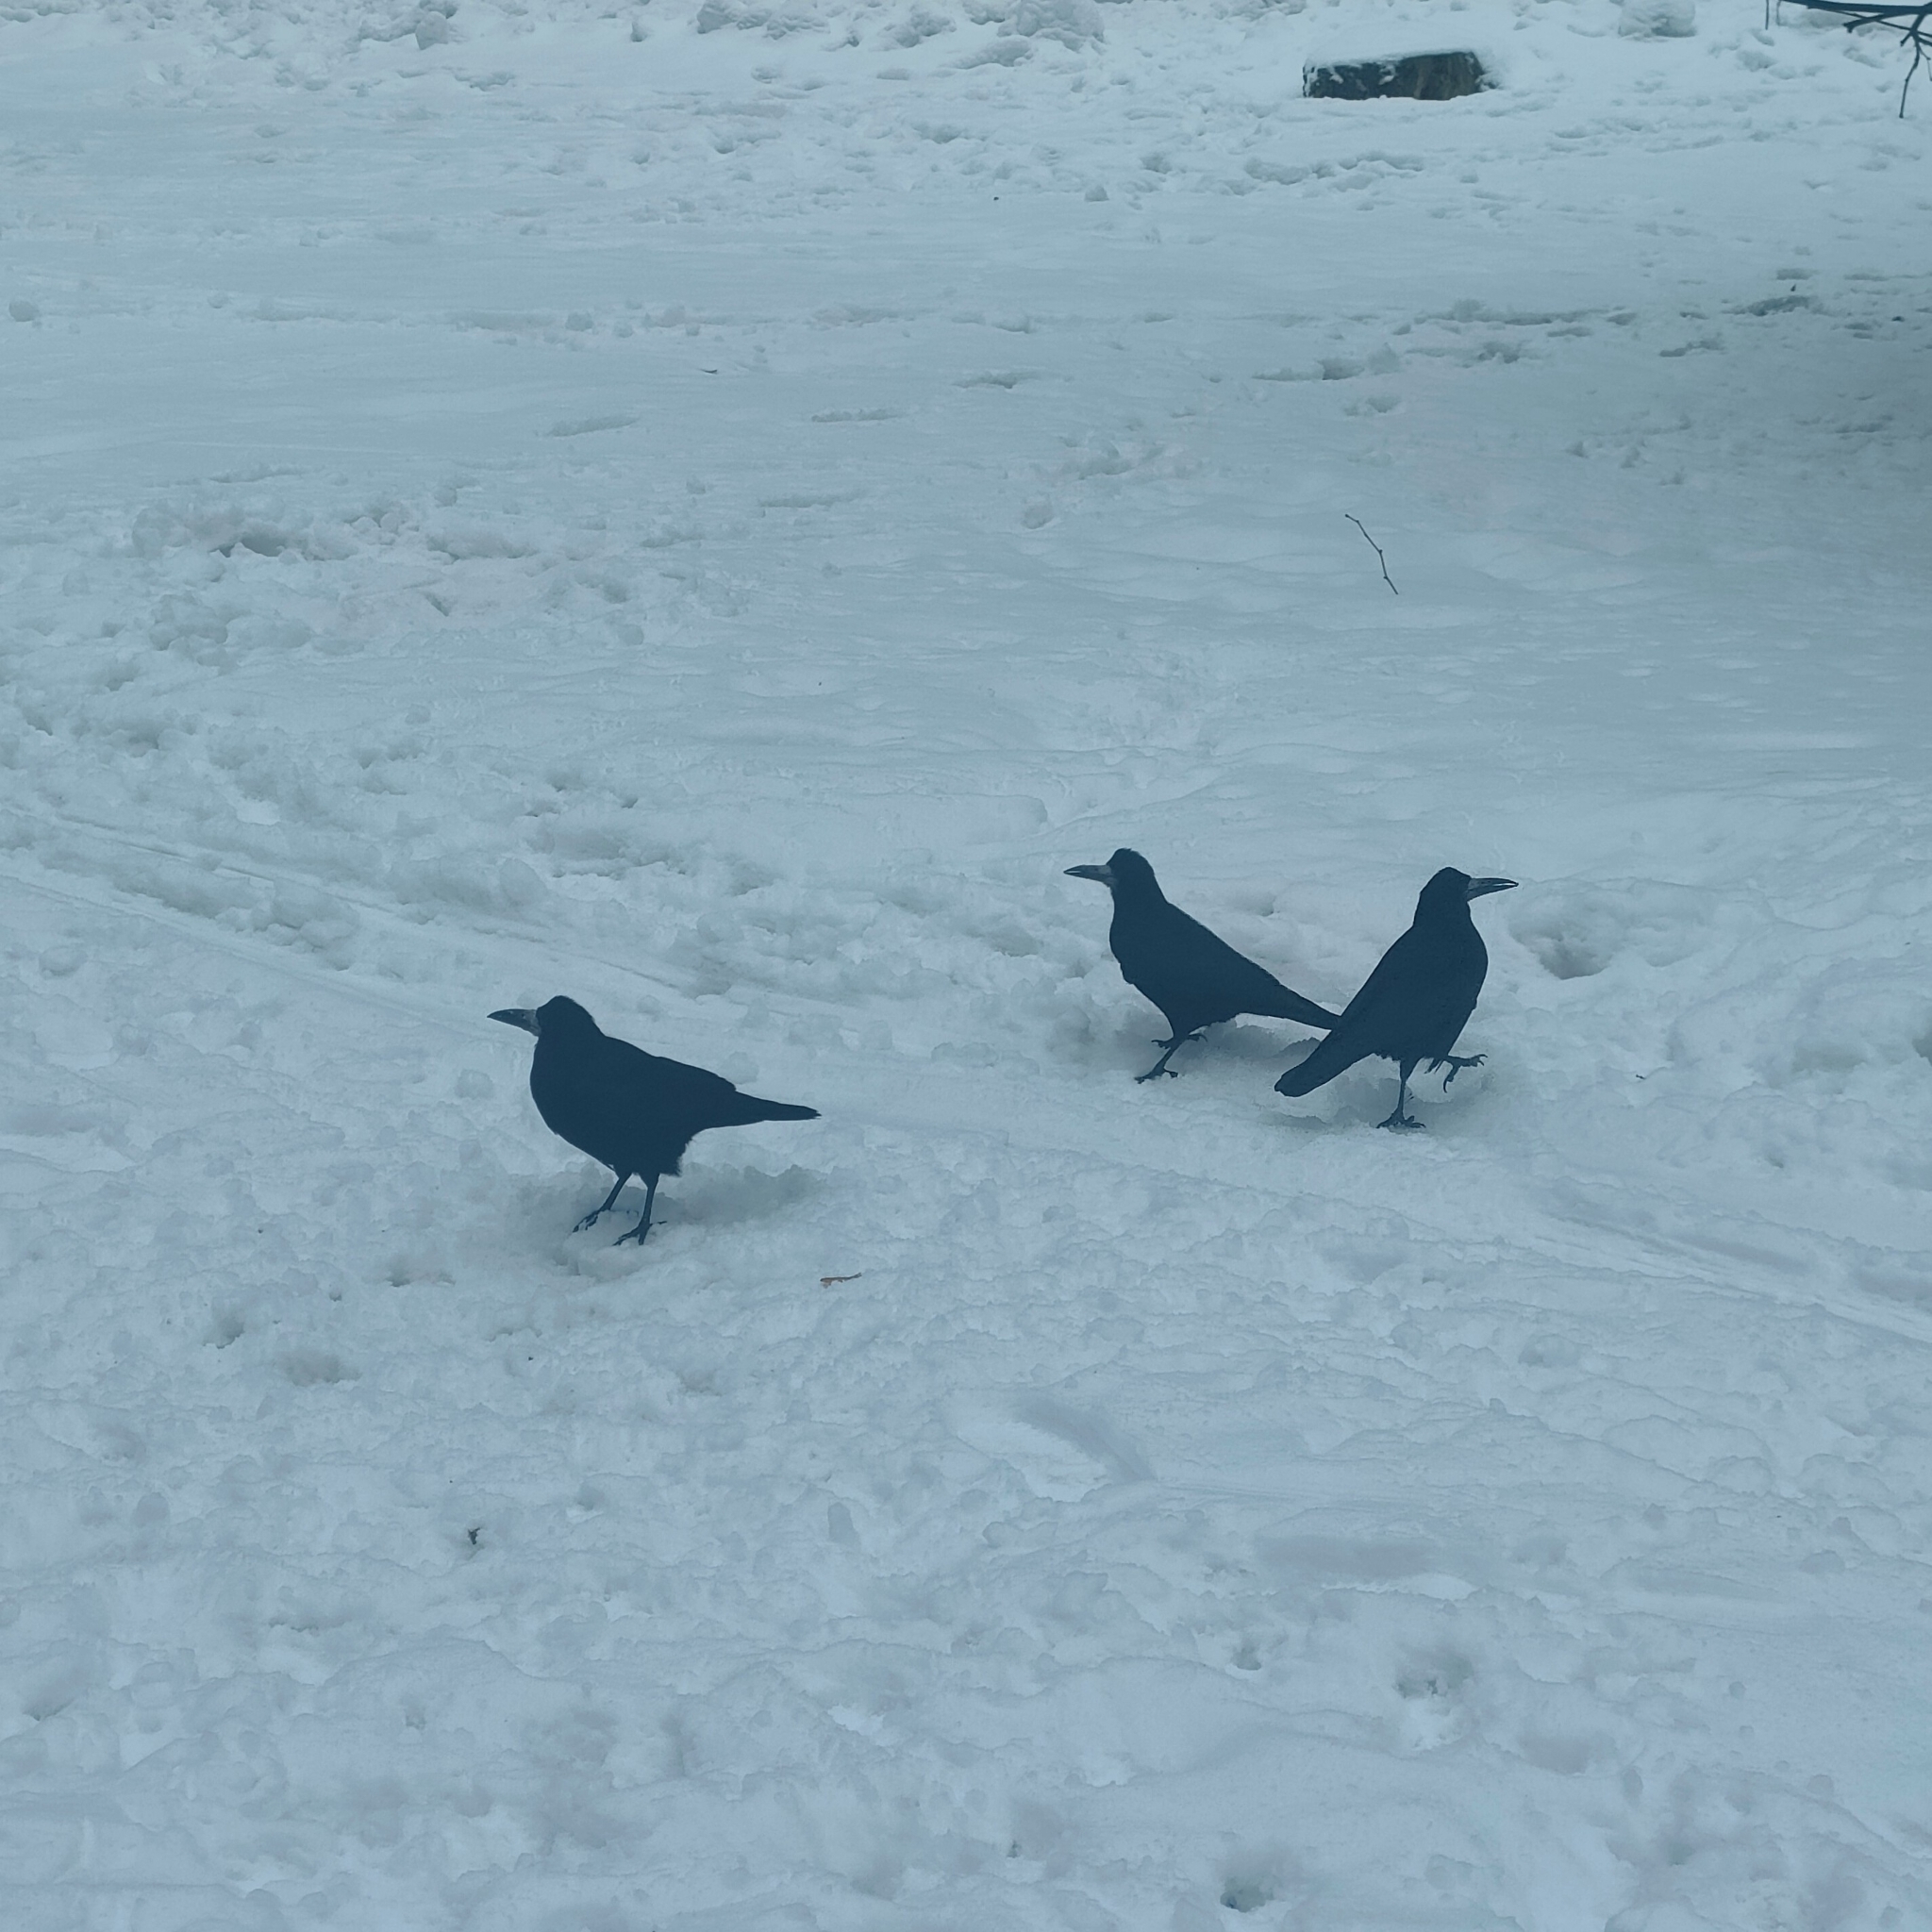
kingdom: Animalia
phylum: Chordata
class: Aves
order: Passeriformes
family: Corvidae
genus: Corvus
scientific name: Corvus frugilegus
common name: Rook
